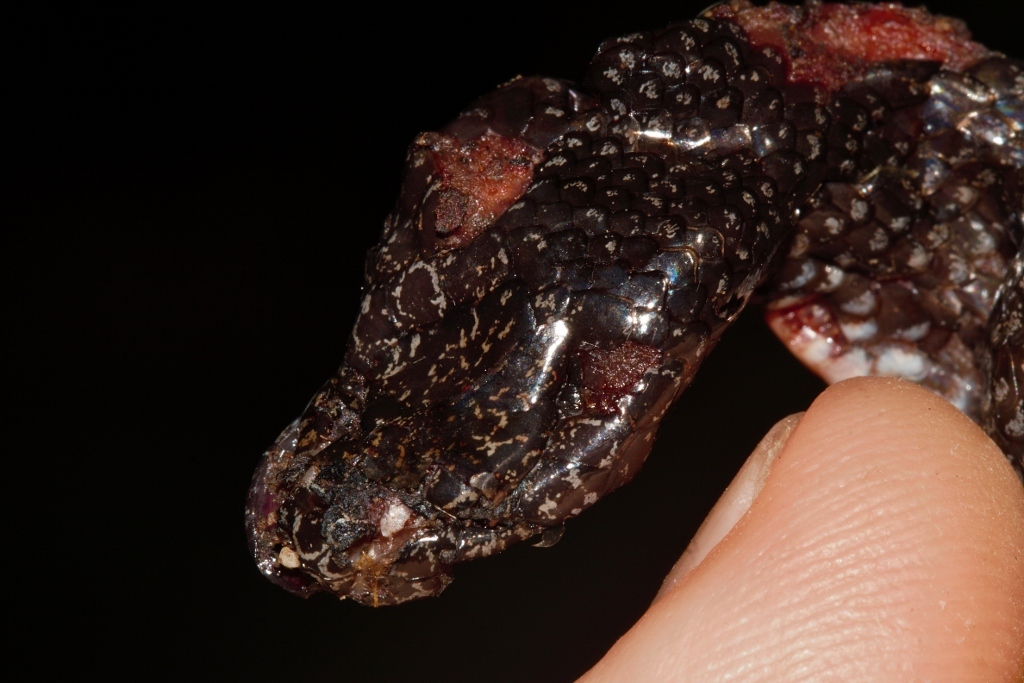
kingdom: Animalia
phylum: Chordata
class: Squamata
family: Lamprophiidae
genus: Lycophidion
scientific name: Lycophidion capense
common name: Cape wolf snake
